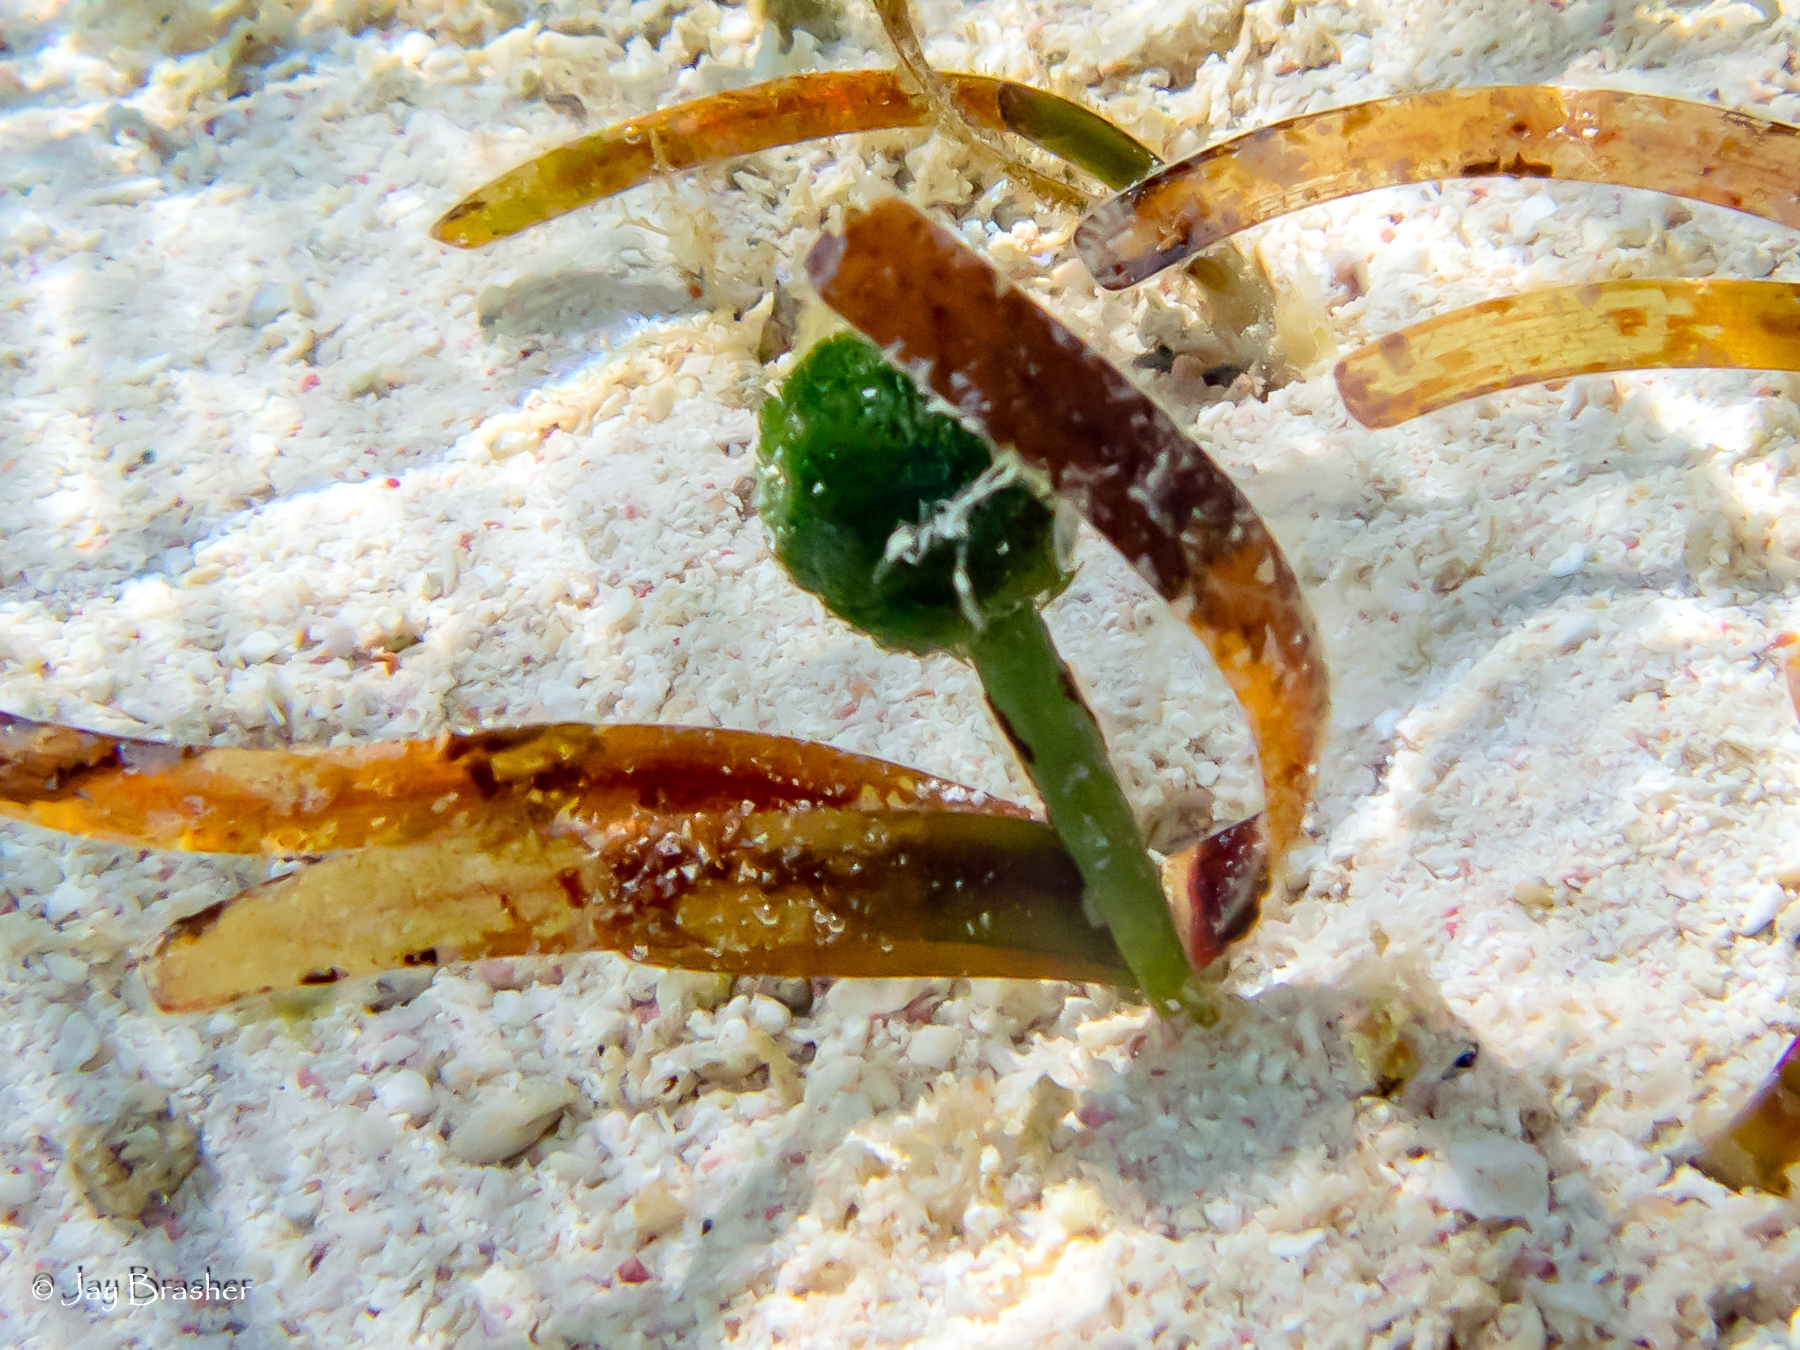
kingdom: Plantae
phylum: Chlorophyta
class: Ulvophyceae
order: Bryopsidales
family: Udoteaceae
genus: Penicillus
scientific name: Penicillus capitatus
